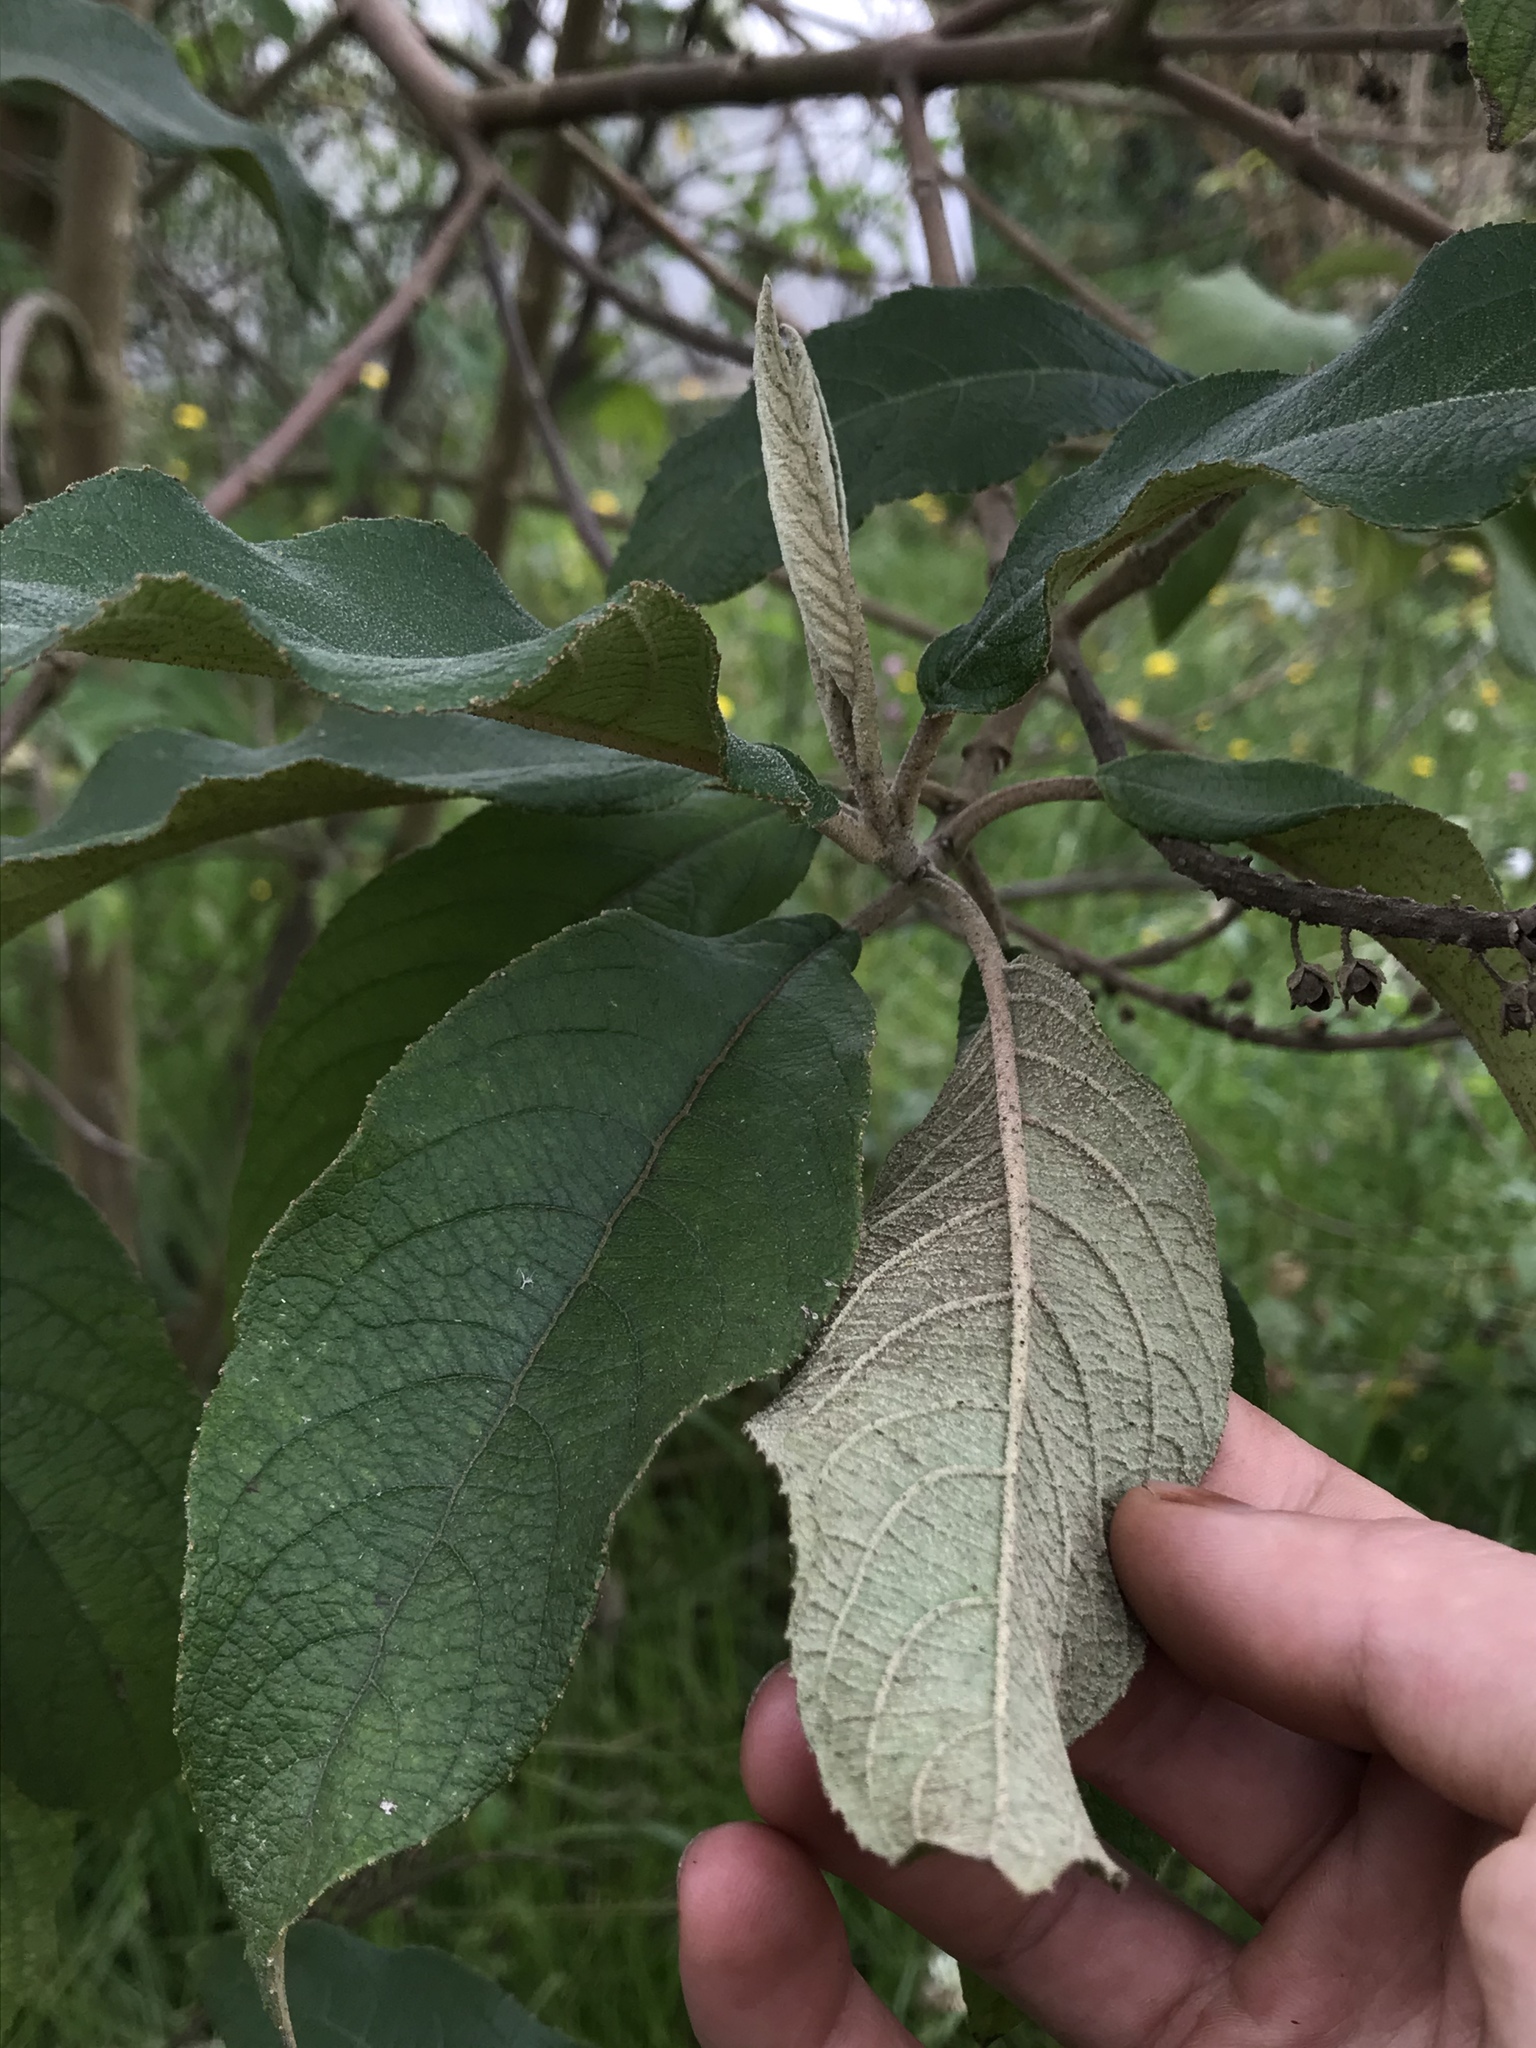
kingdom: Plantae
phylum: Tracheophyta
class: Magnoliopsida
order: Malpighiales
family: Salicaceae
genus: Abatia
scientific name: Abatia parviflora
